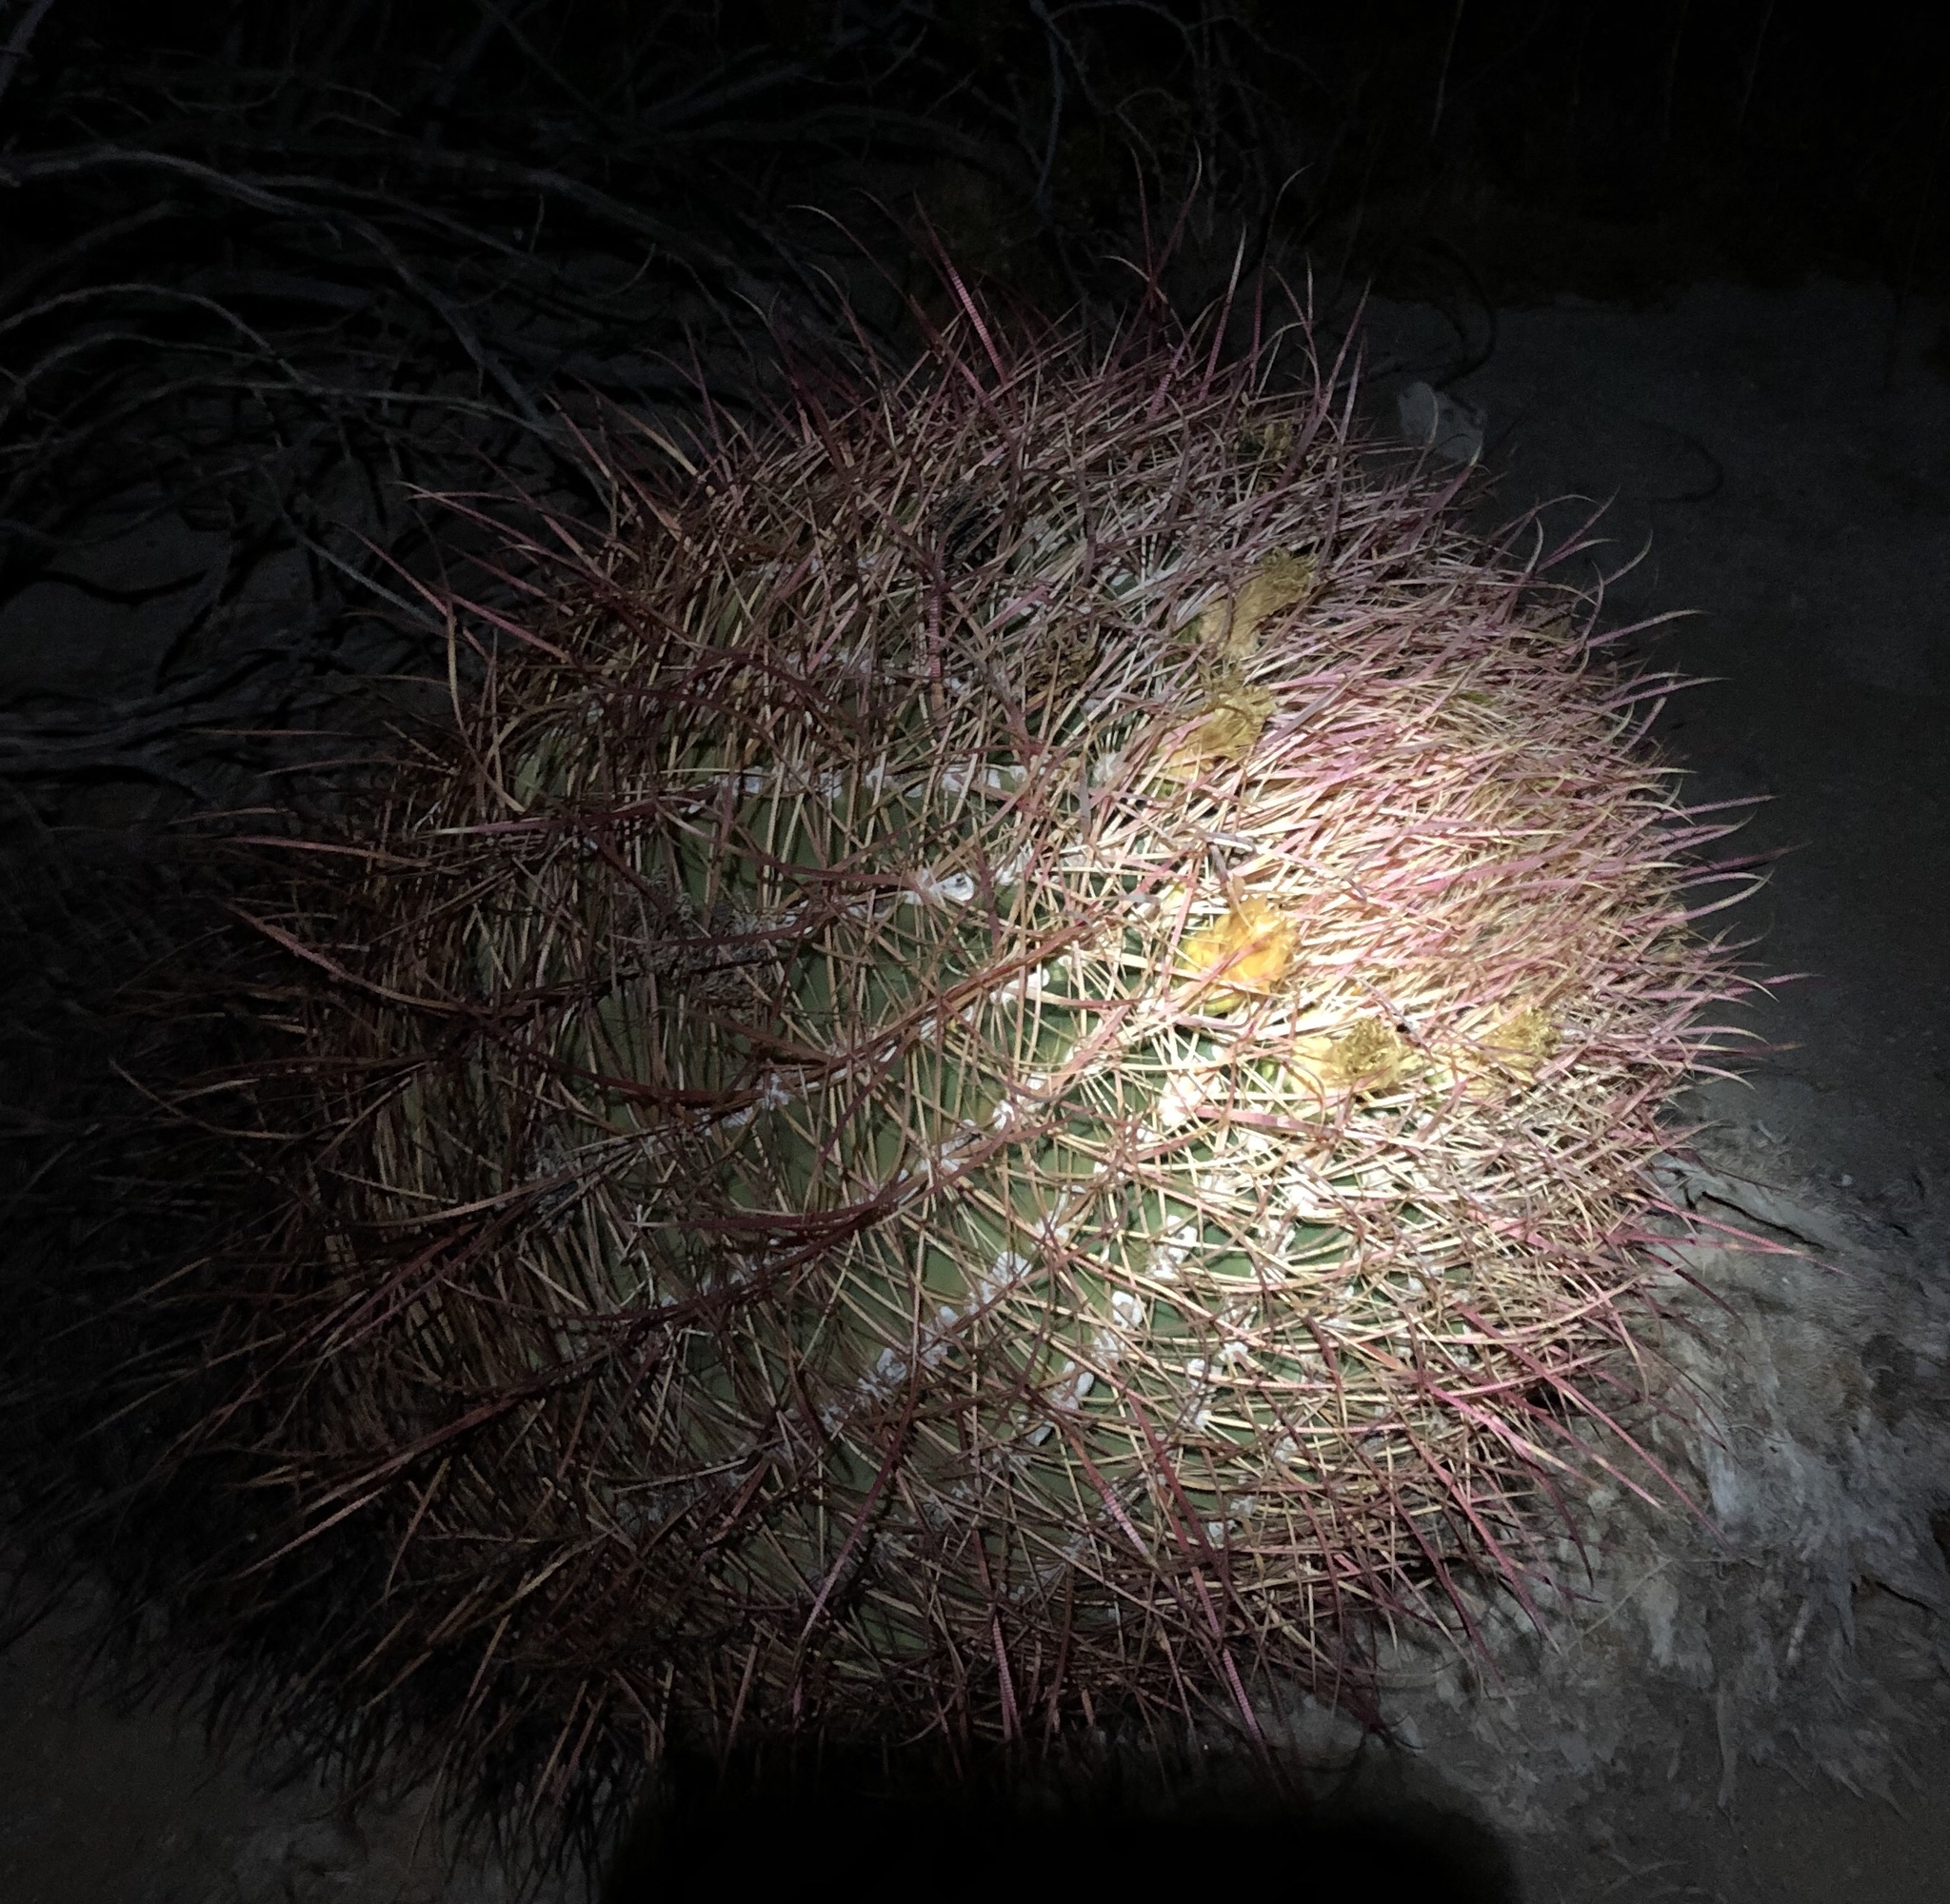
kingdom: Plantae
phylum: Tracheophyta
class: Magnoliopsida
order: Caryophyllales
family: Cactaceae
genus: Ferocactus
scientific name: Ferocactus cylindraceus
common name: California barrel cactus
